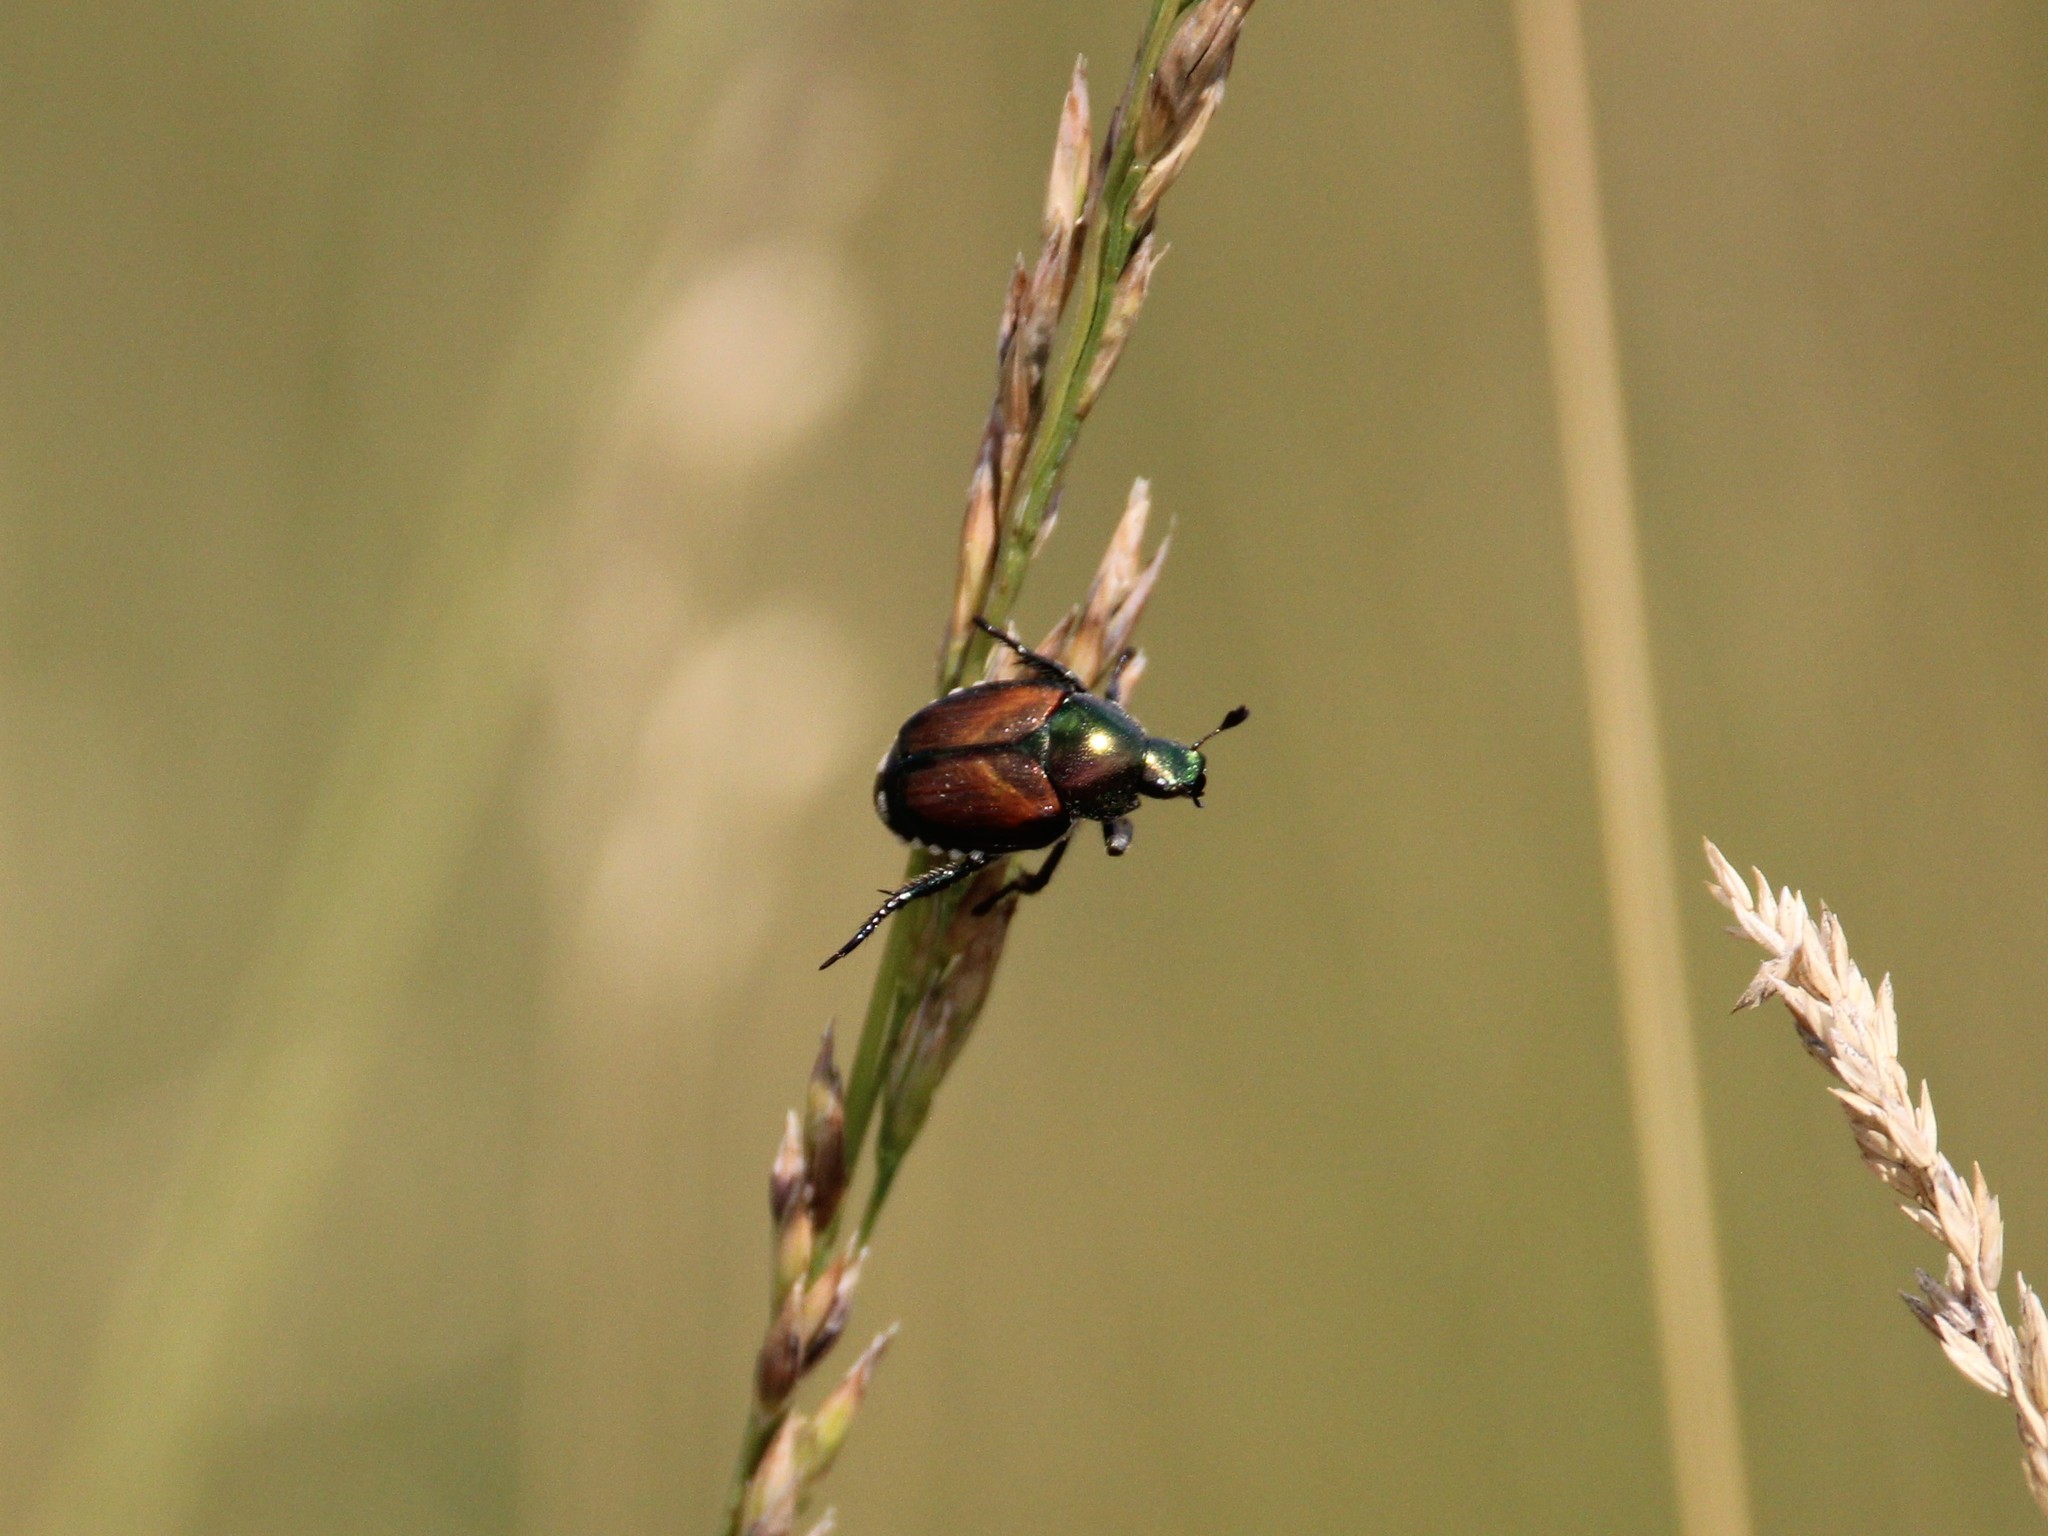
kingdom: Animalia
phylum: Arthropoda
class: Insecta
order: Coleoptera
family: Scarabaeidae
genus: Popillia
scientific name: Popillia japonica
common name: Japanese beetle
